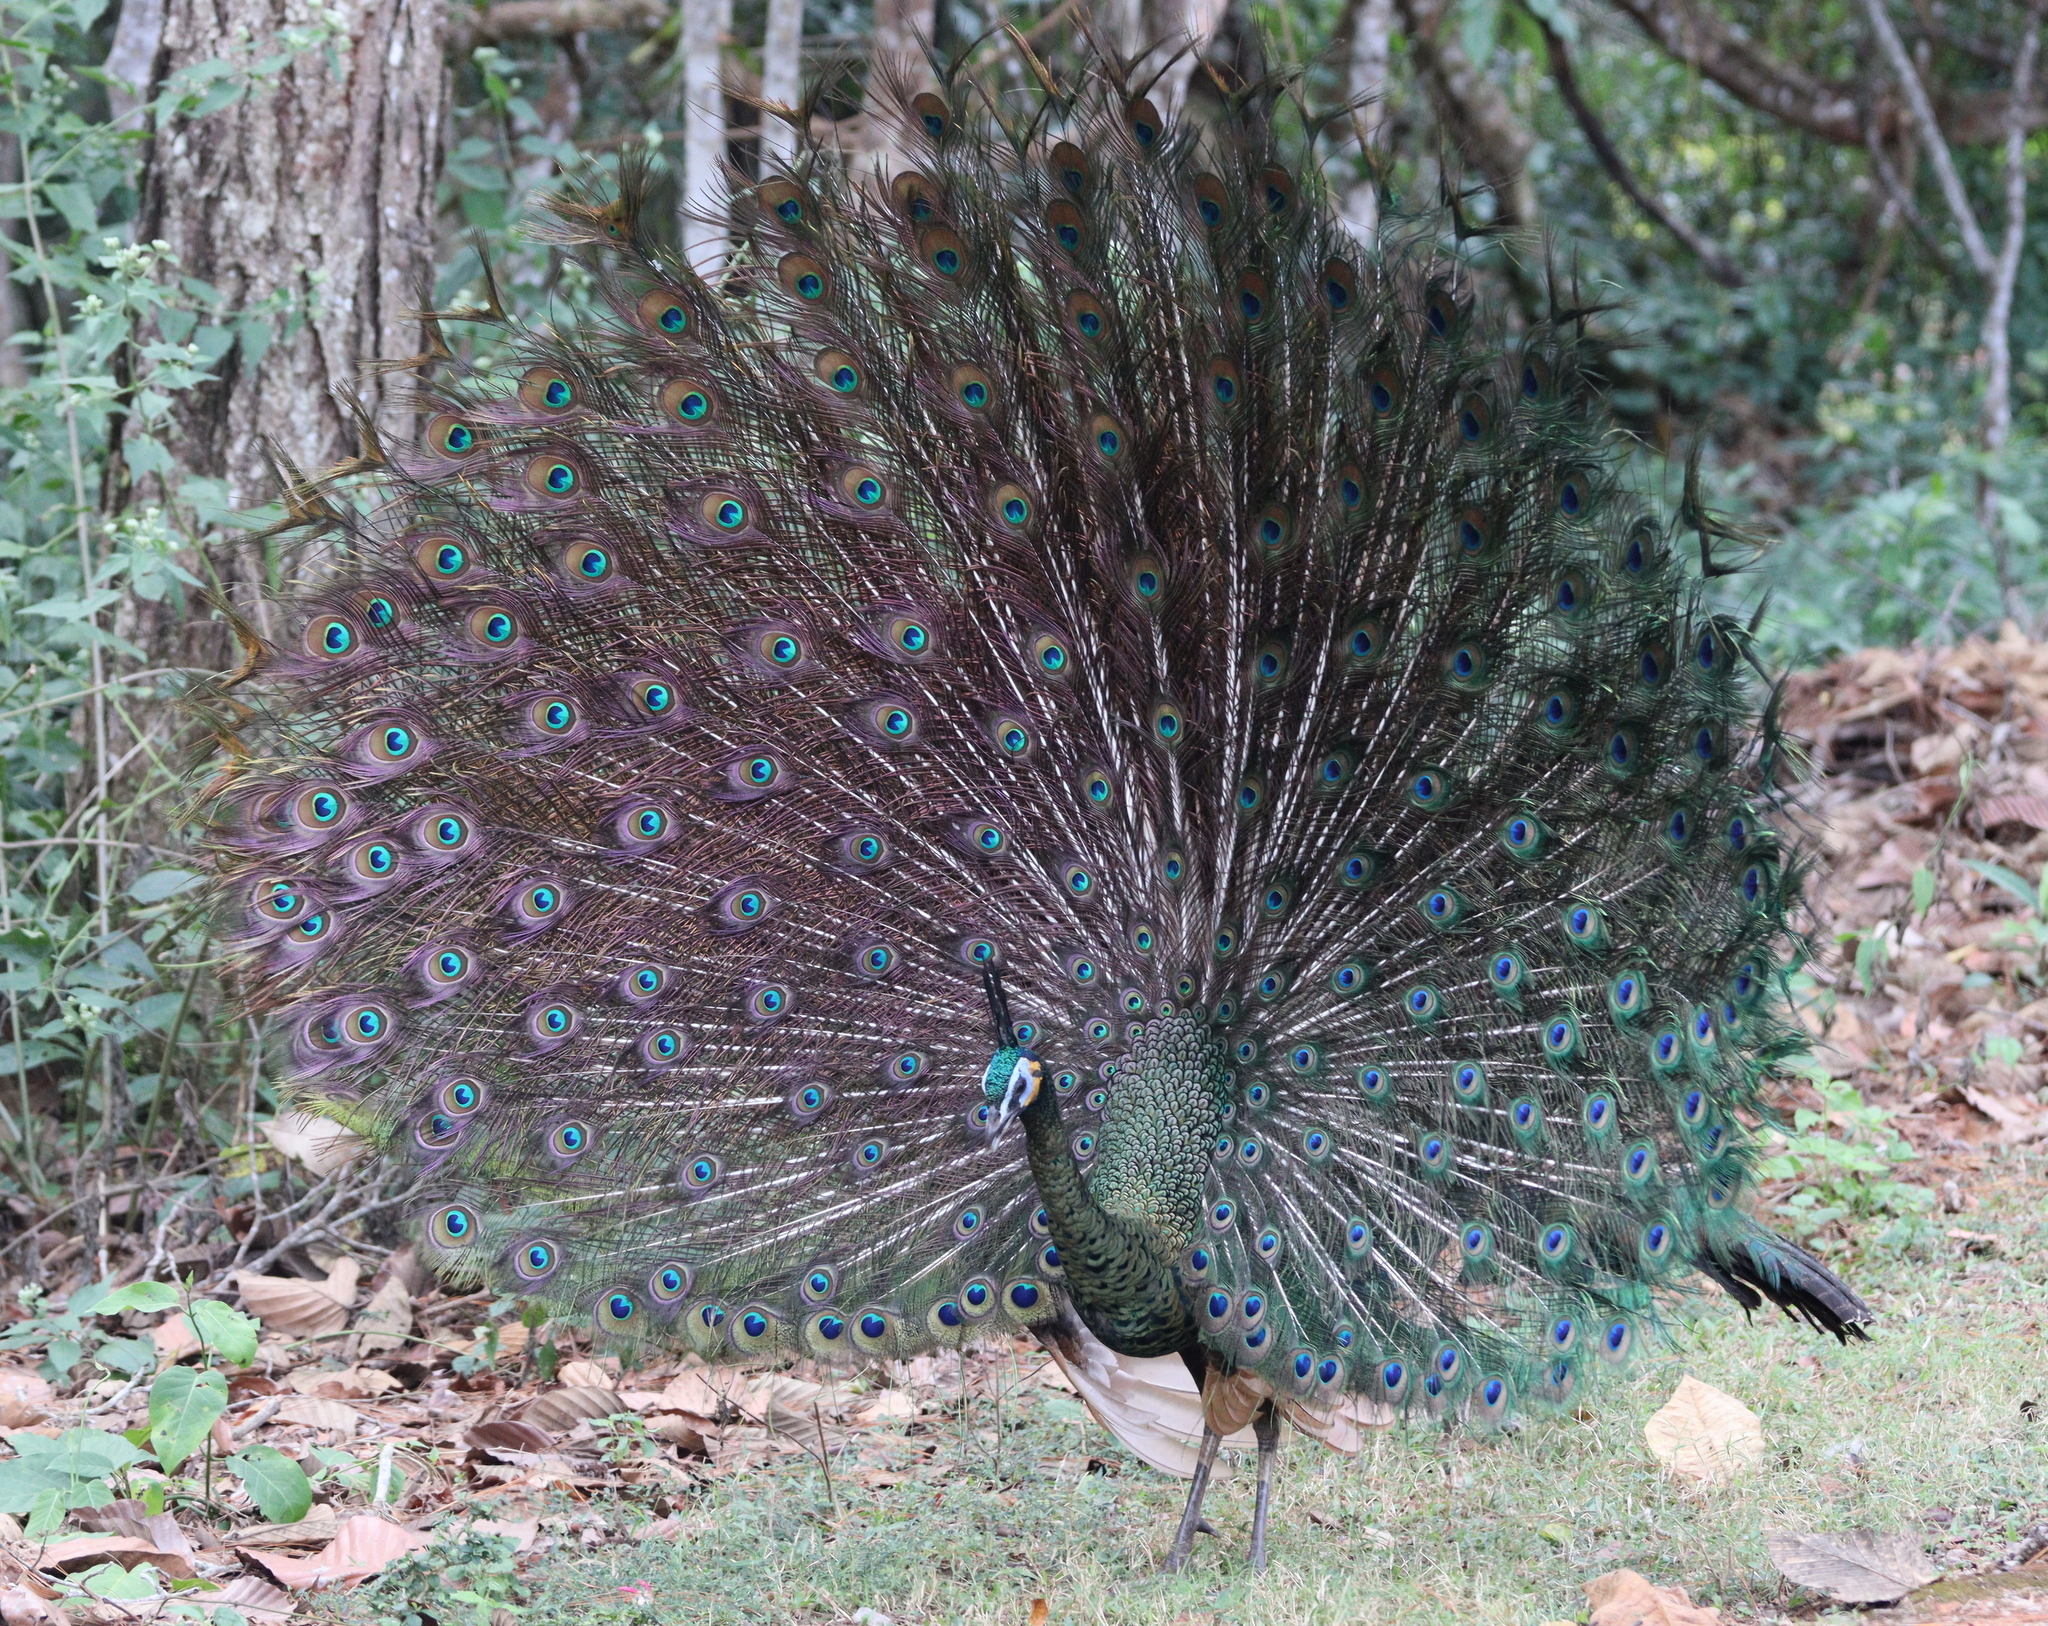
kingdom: Animalia
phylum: Chordata
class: Aves
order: Galliformes
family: Phasianidae
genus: Pavo
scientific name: Pavo muticus
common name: Green peafowl
